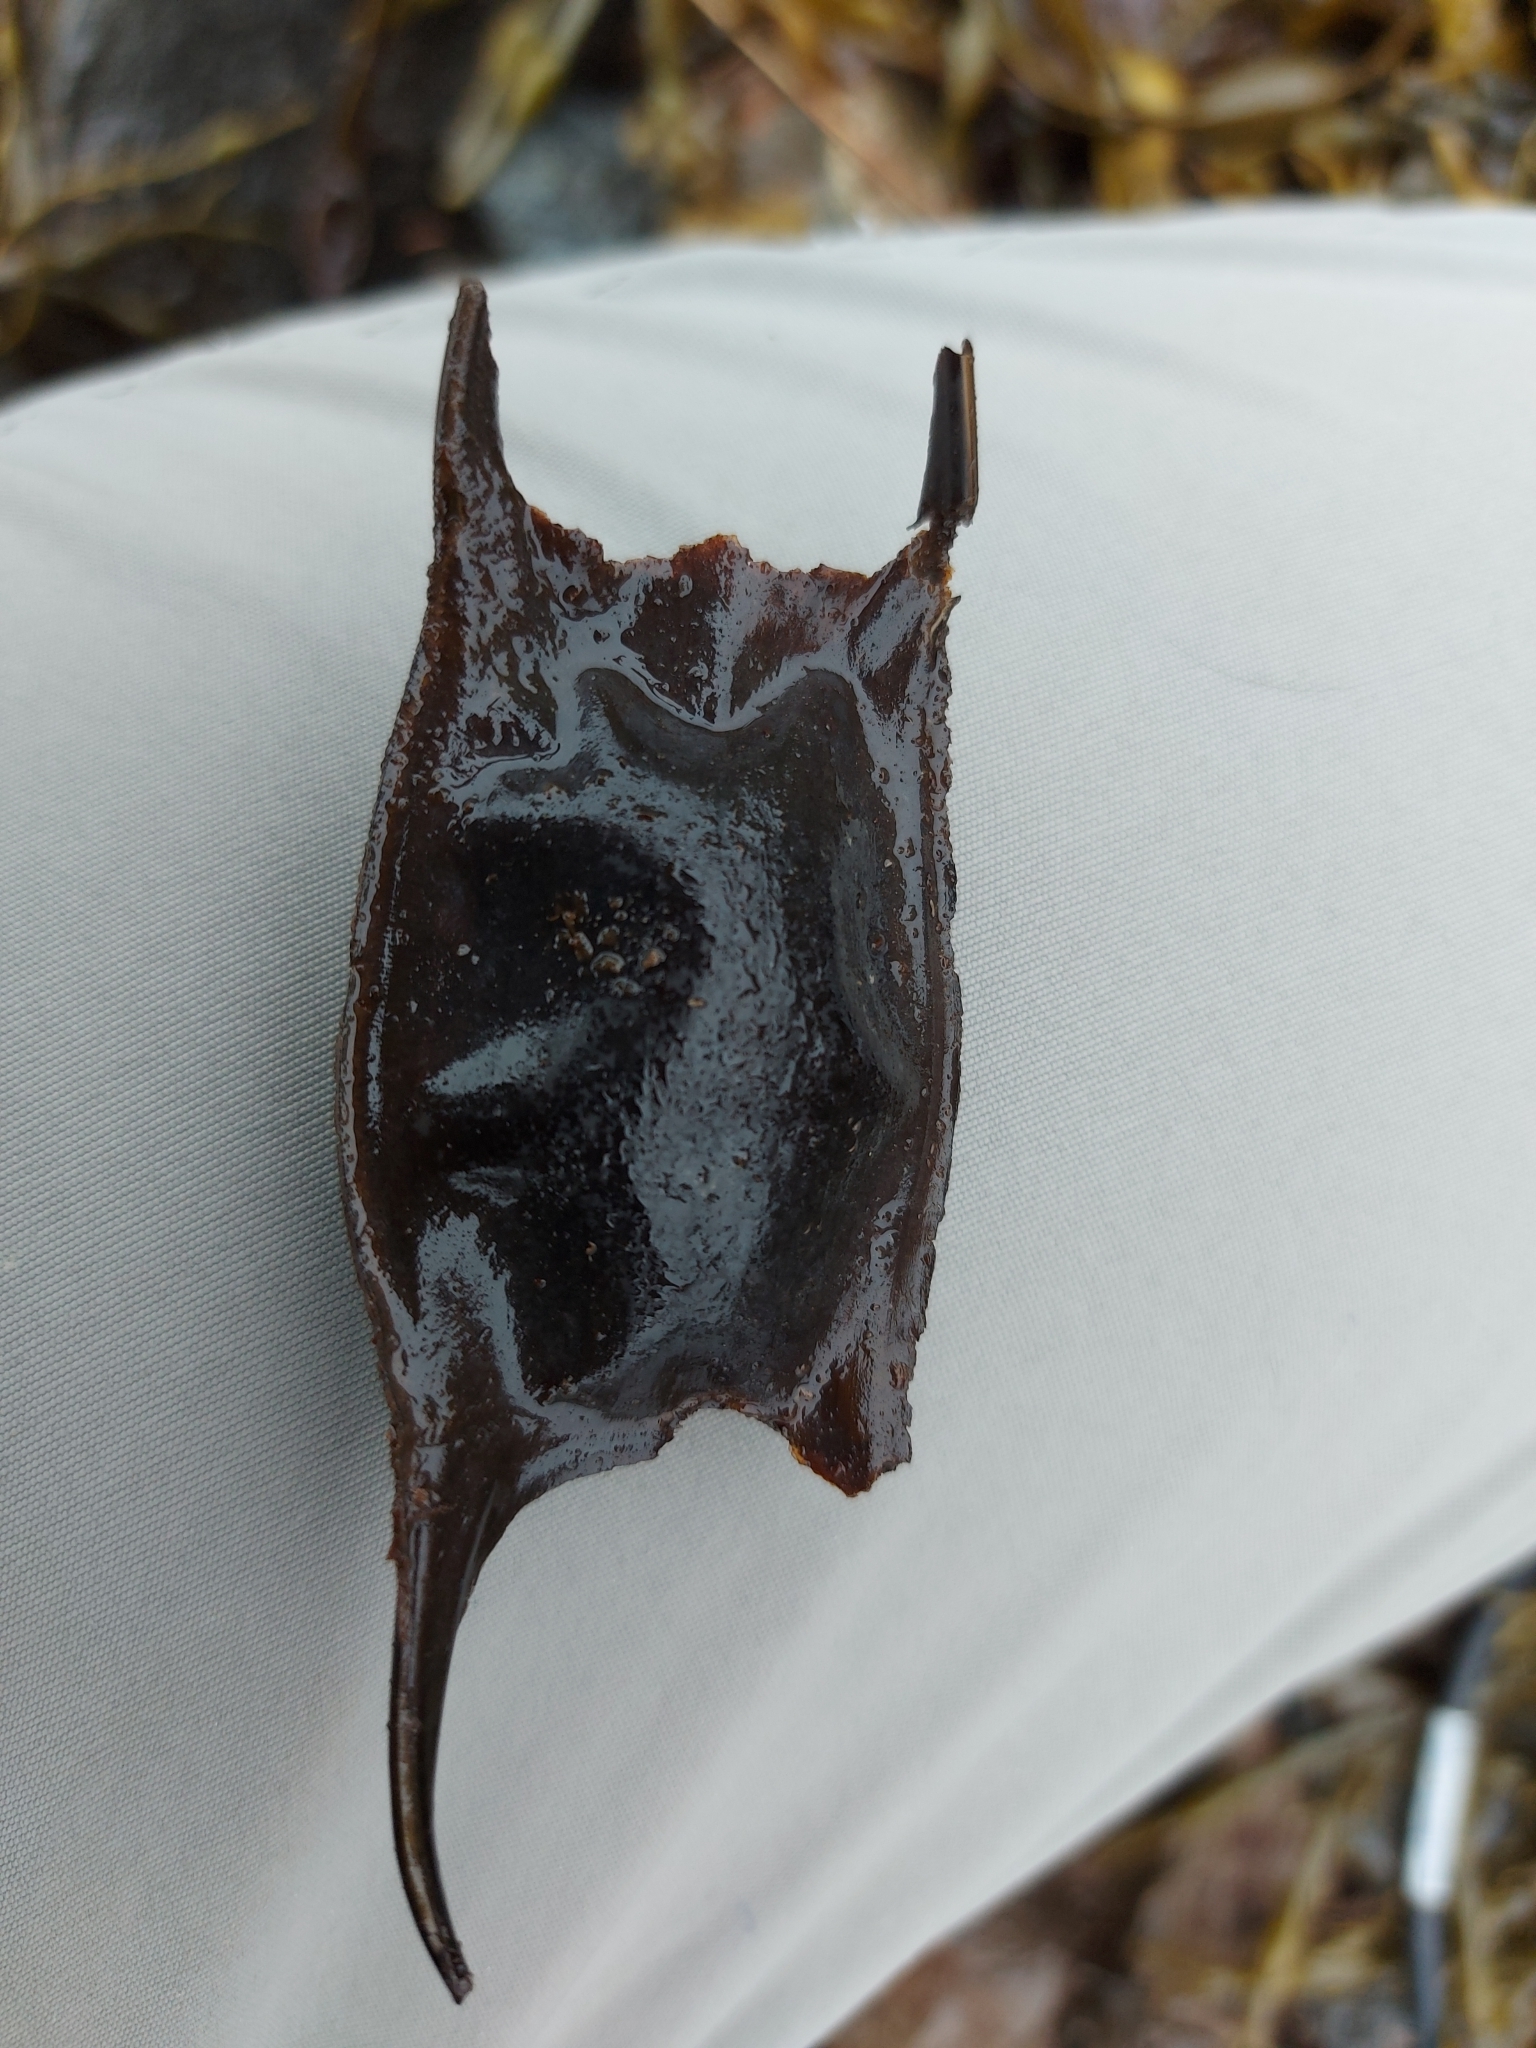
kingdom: Animalia
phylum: Chordata
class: Elasmobranchii
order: Rajiformes
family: Rajidae
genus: Leucoraja
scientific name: Leucoraja ocellata
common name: Winter skate
